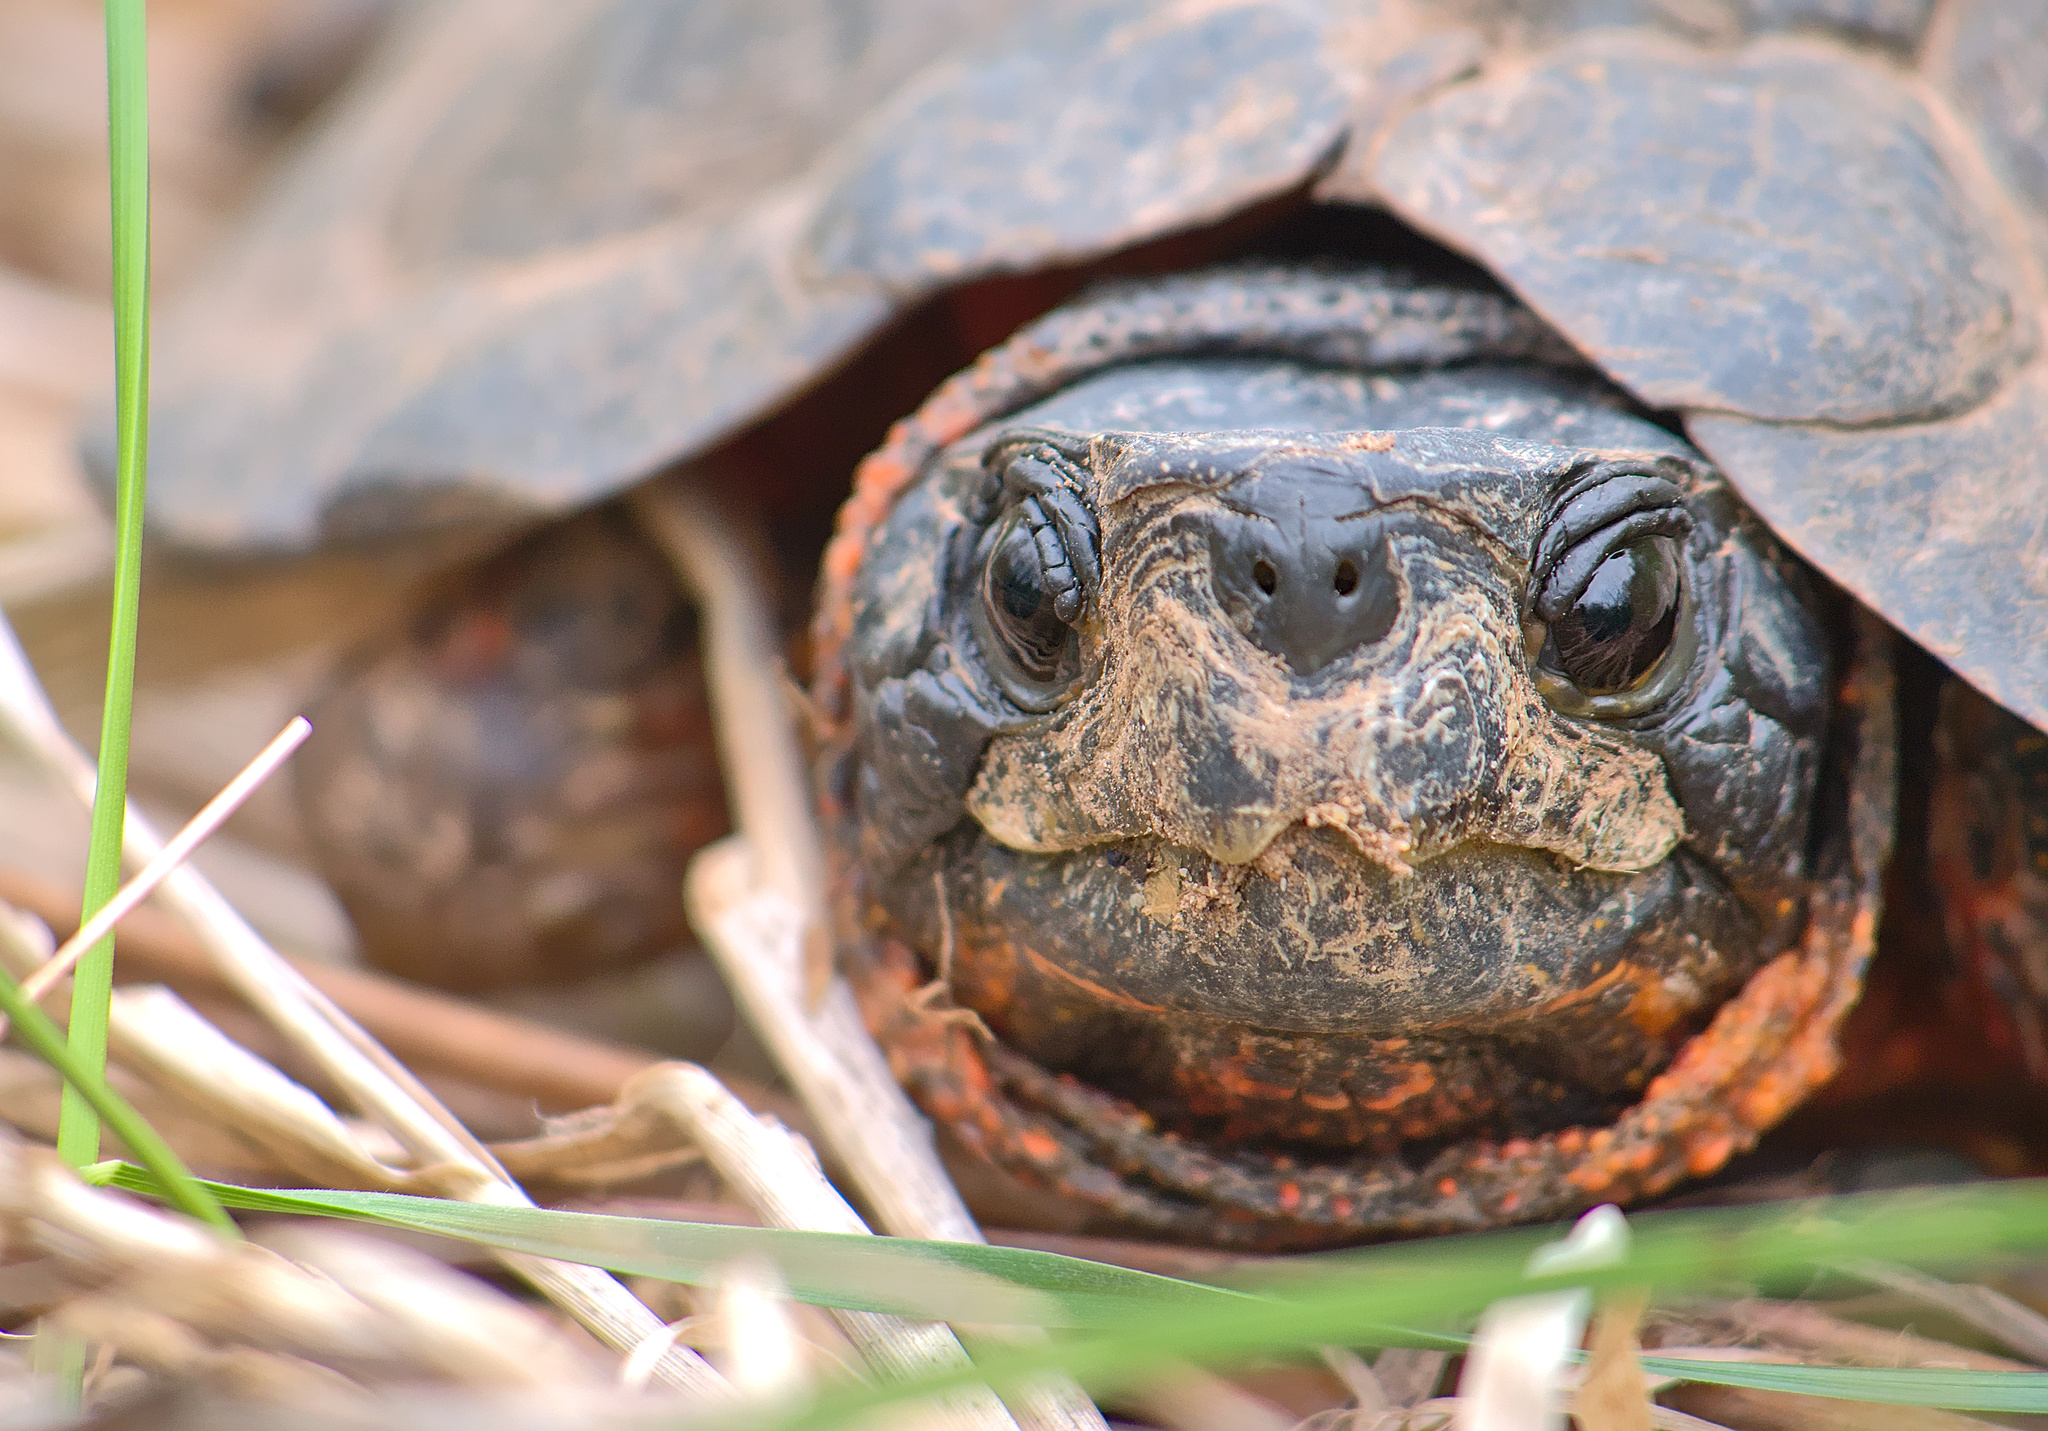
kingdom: Animalia
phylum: Chordata
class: Testudines
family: Emydidae
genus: Glyptemys
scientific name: Glyptemys insculpta
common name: Wood turtle
